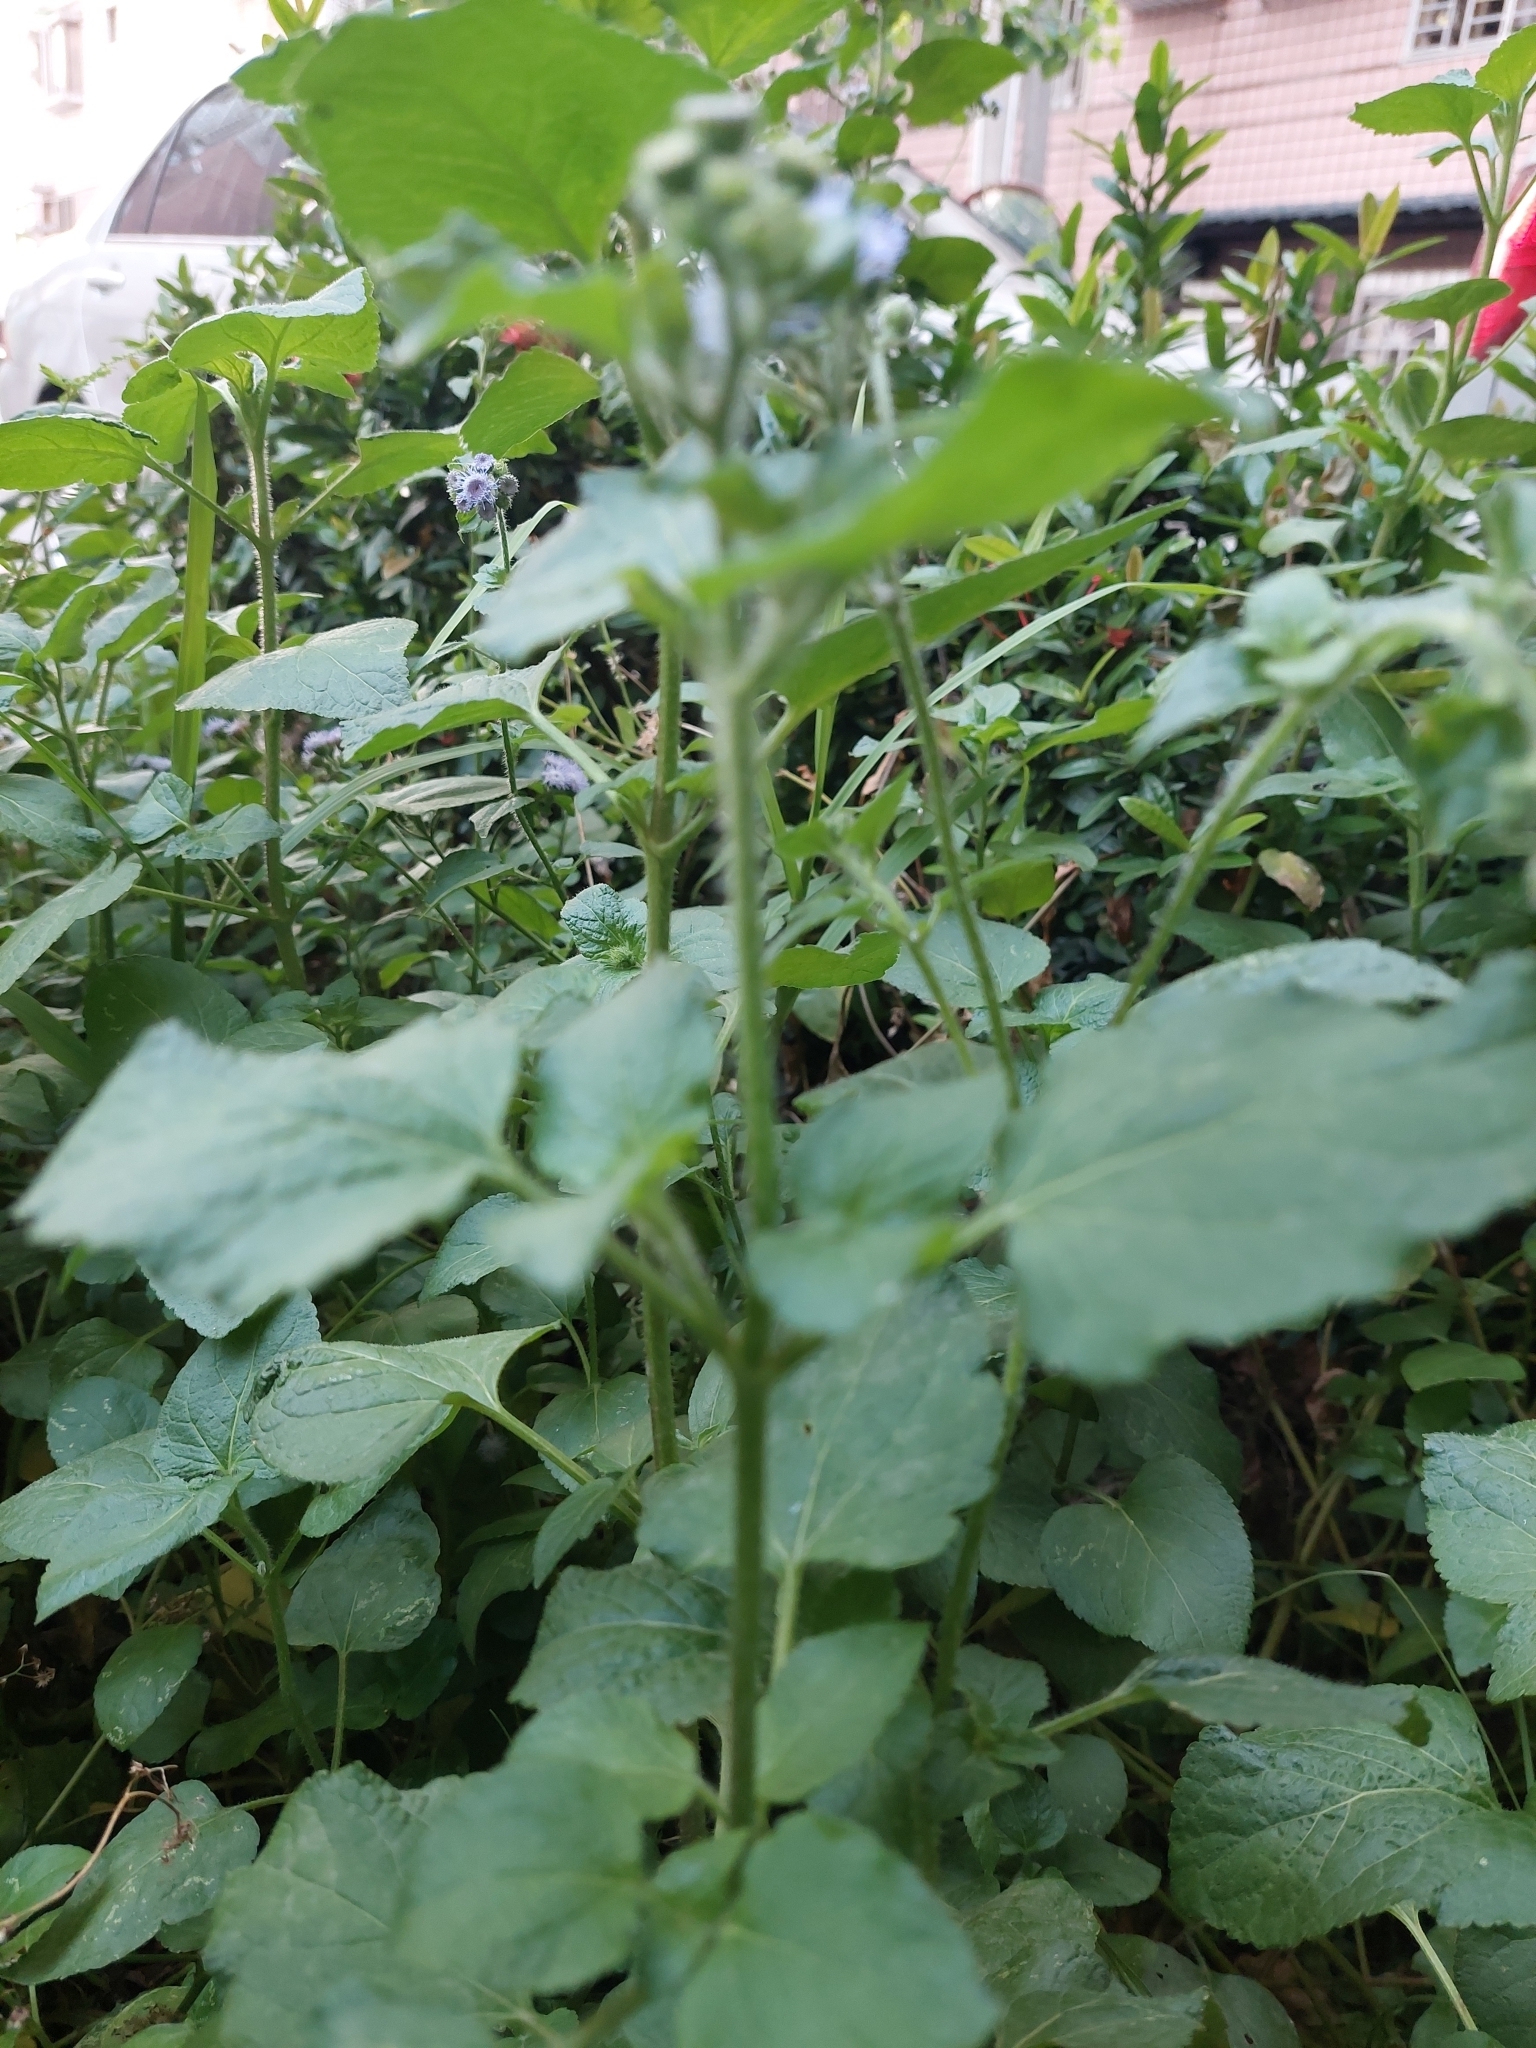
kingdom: Plantae
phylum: Tracheophyta
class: Magnoliopsida
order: Asterales
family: Asteraceae
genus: Ageratum
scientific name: Ageratum houstonianum
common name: Bluemink
